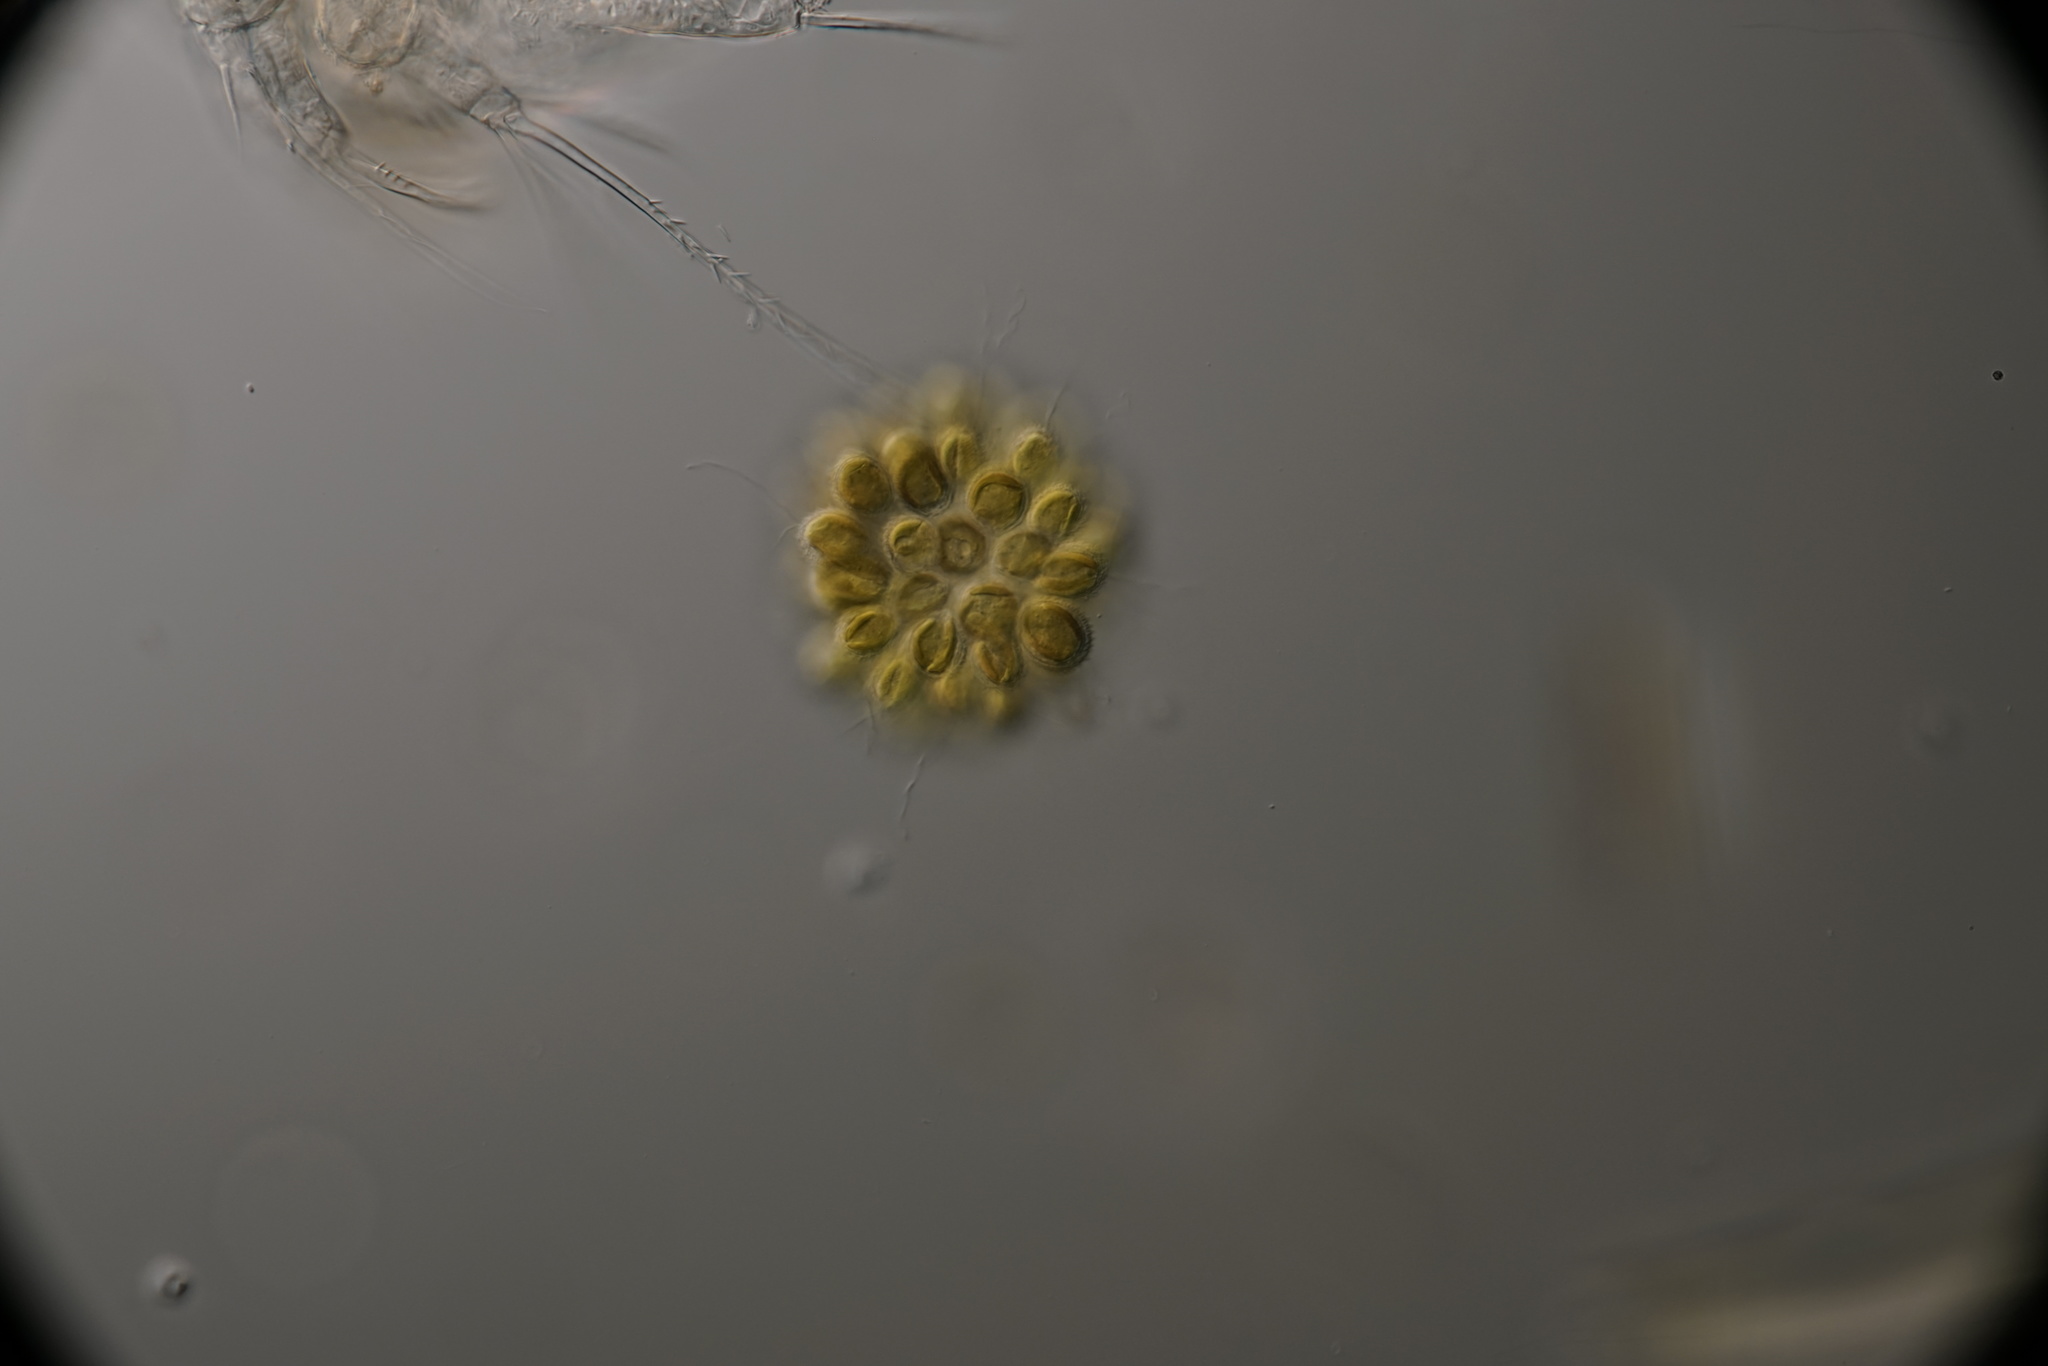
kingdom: Chromista
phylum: Ochrophyta
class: Synurophyceae
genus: Synura
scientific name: Synura
